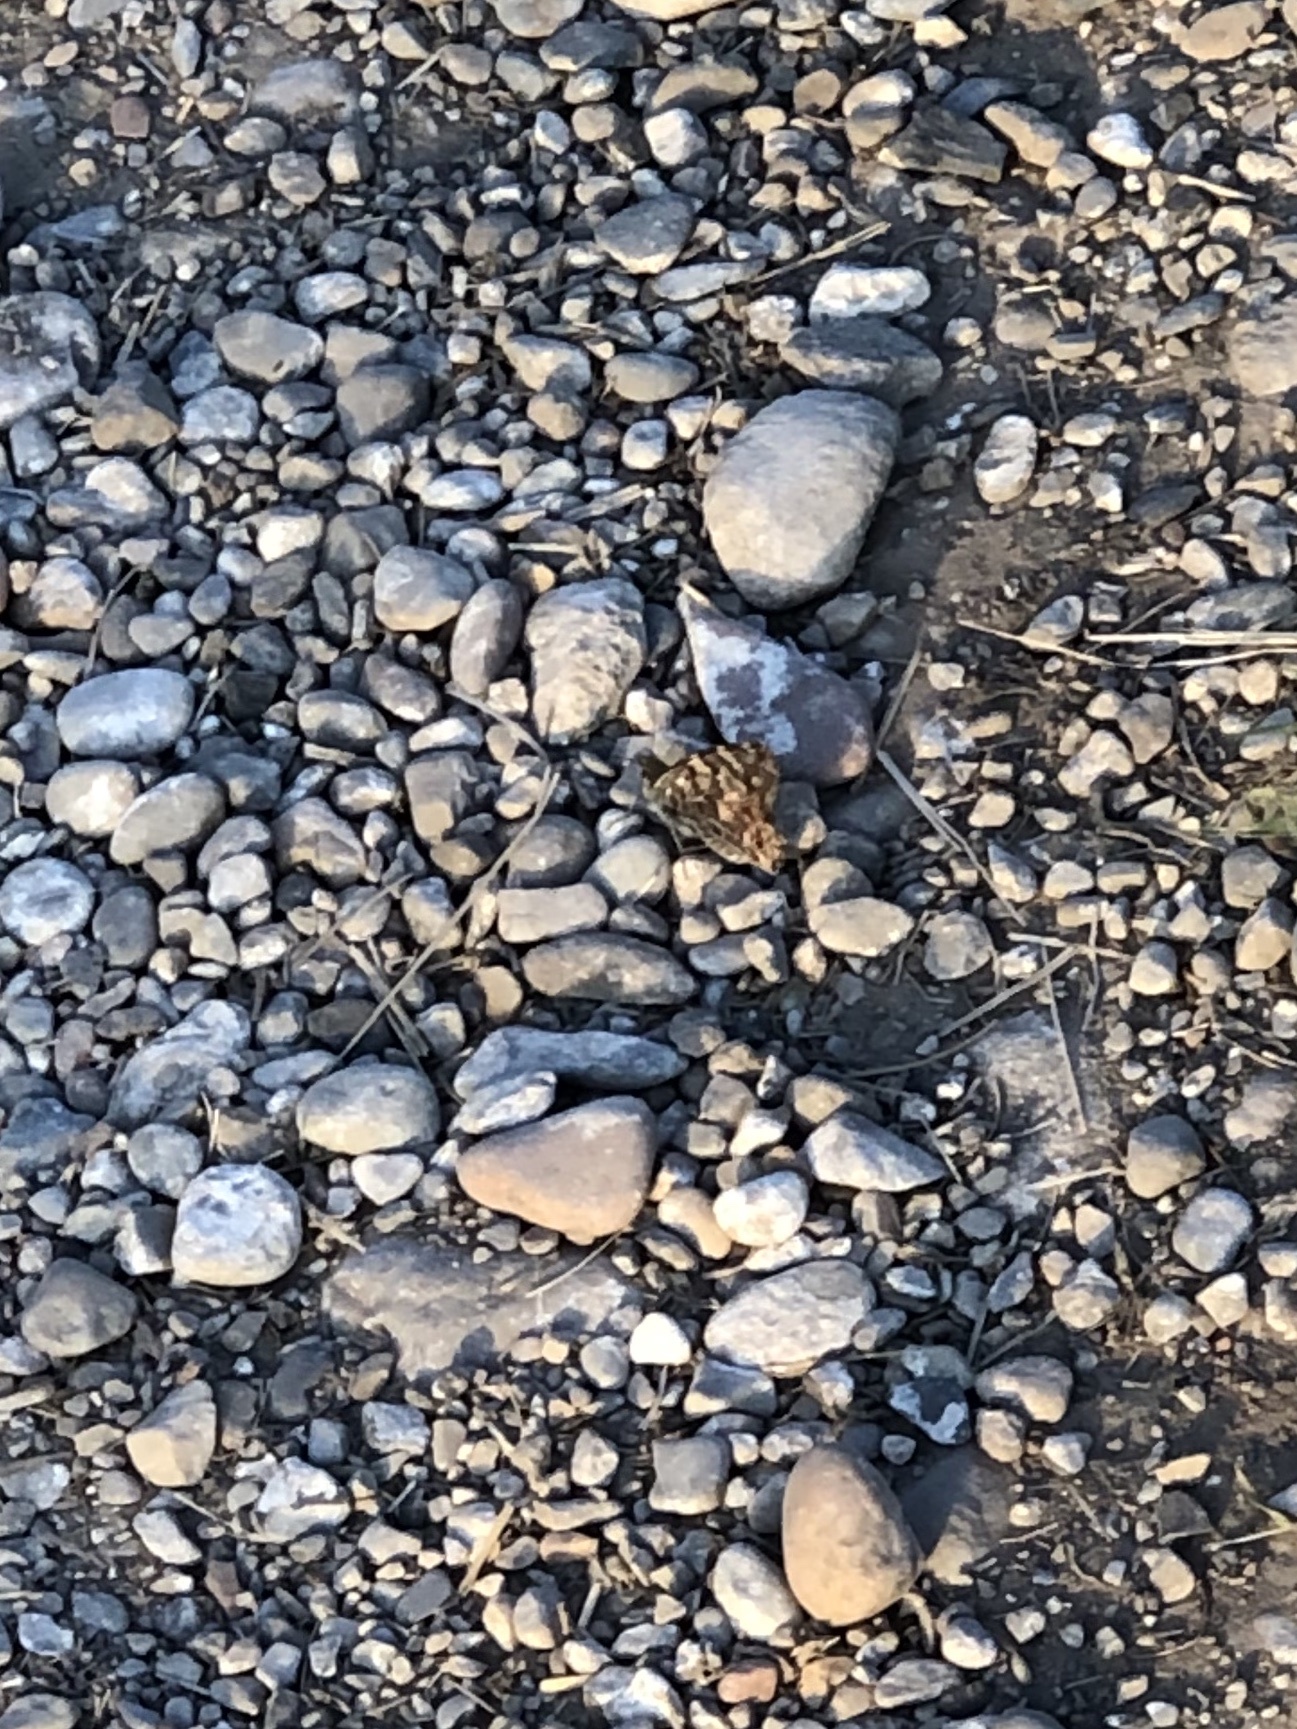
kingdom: Animalia
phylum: Arthropoda
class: Insecta
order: Lepidoptera
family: Nymphalidae
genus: Vanessa
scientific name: Vanessa cardui
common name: Painted lady
